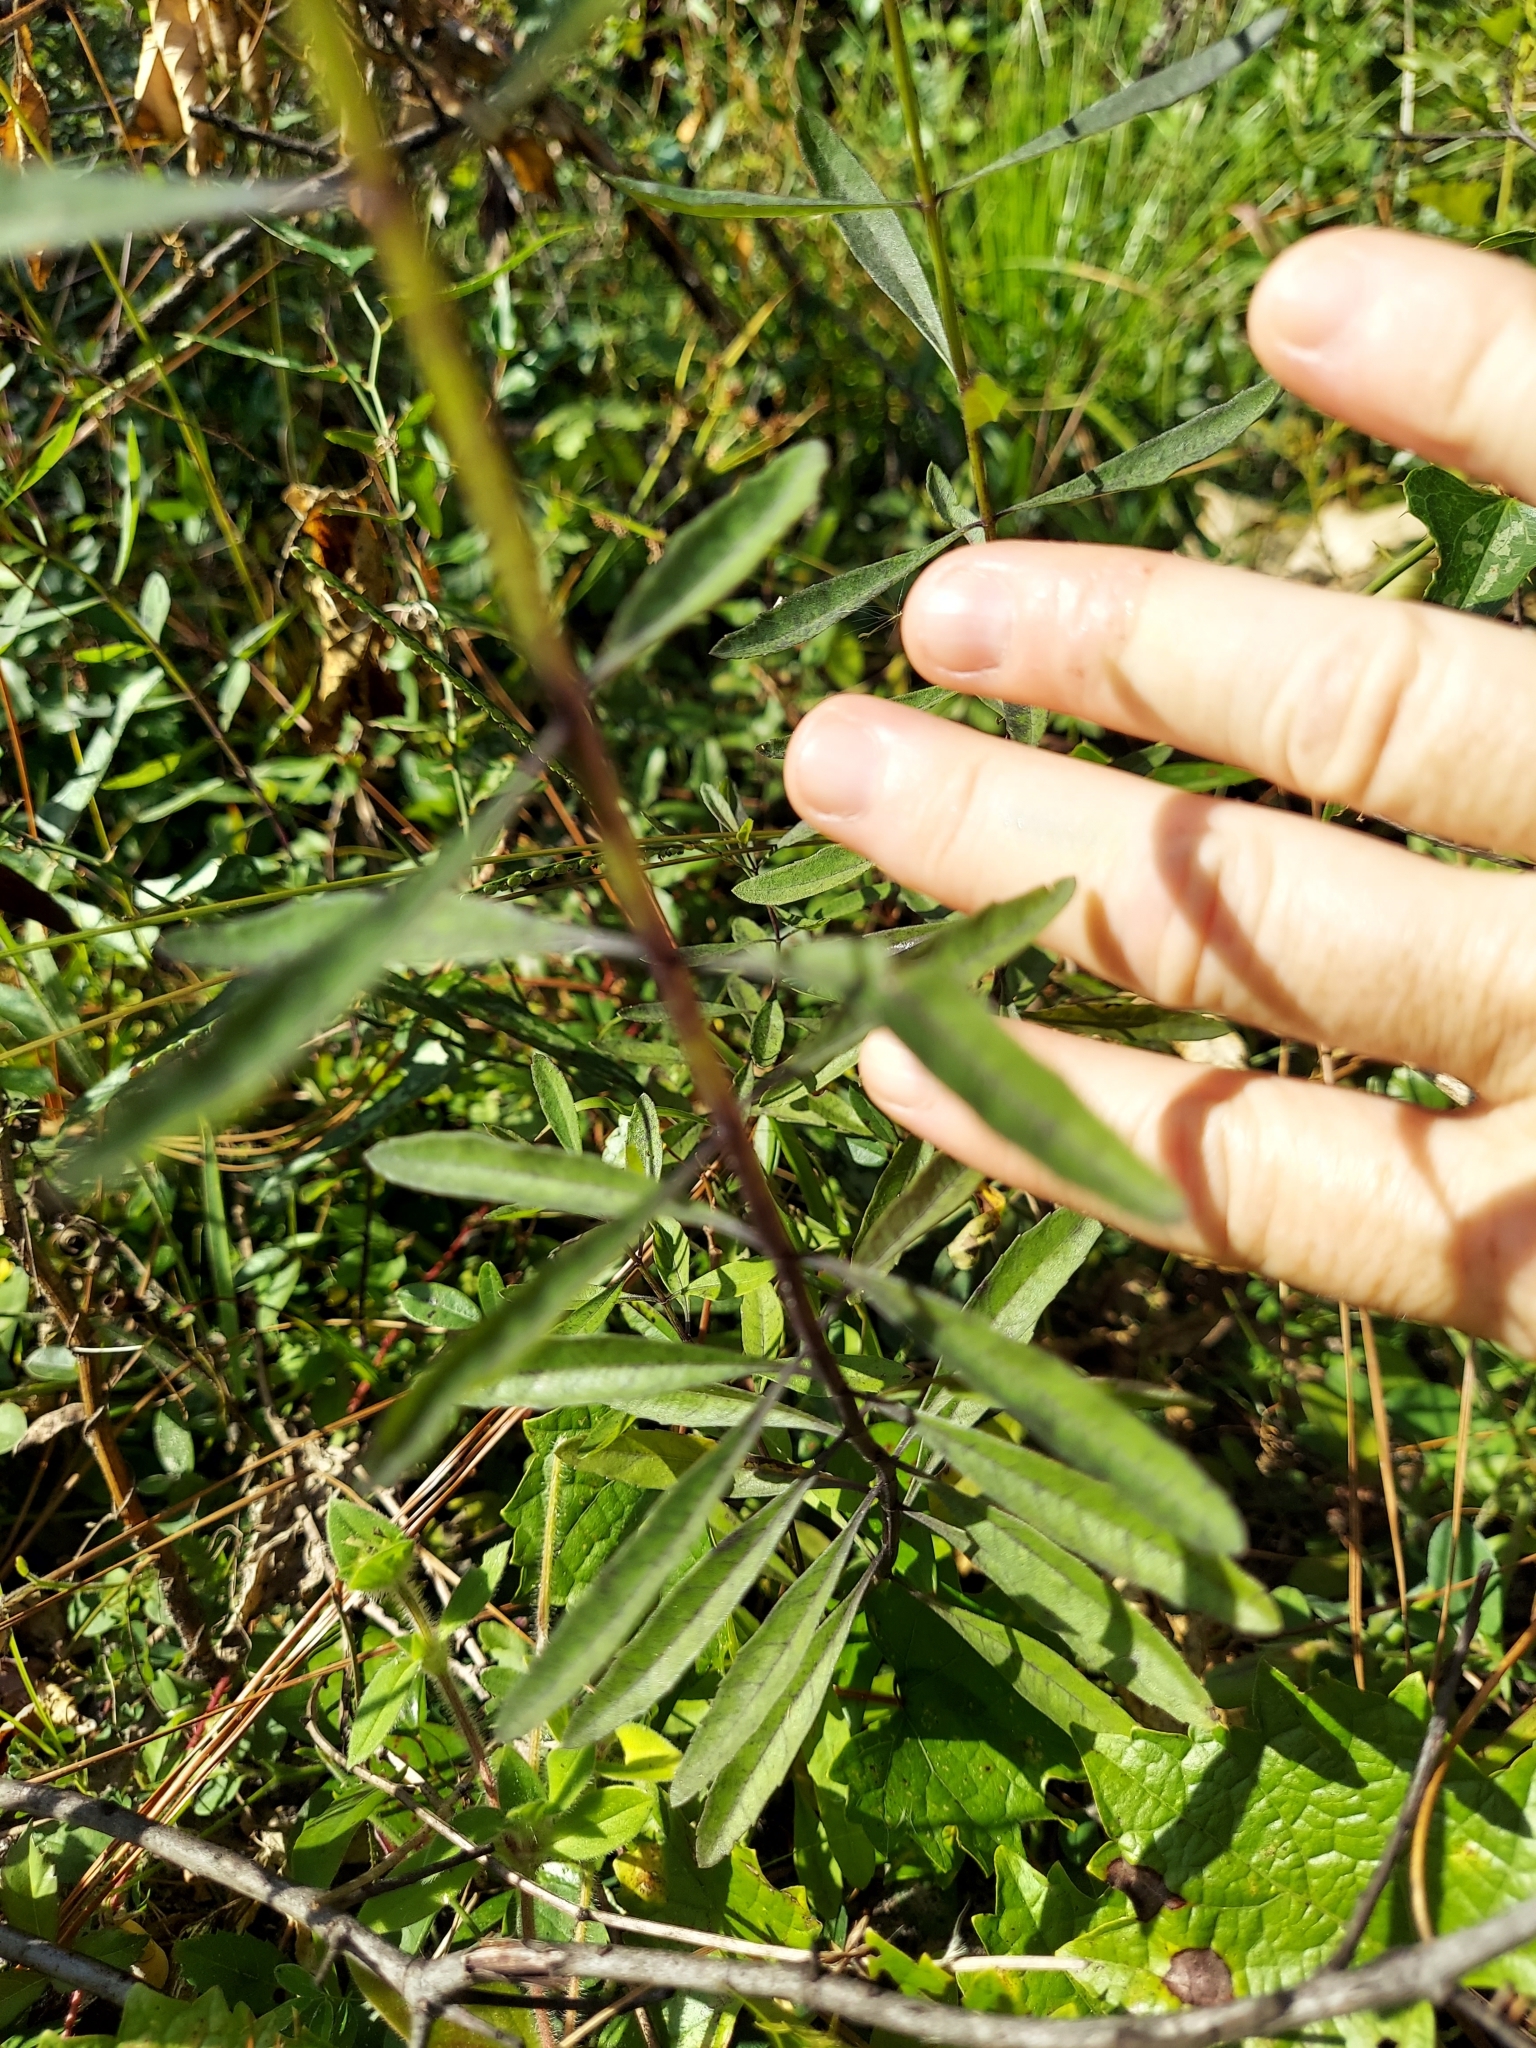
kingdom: Plantae
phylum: Tracheophyta
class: Magnoliopsida
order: Lamiales
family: Lamiaceae
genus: Salvia
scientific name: Salvia azurea
